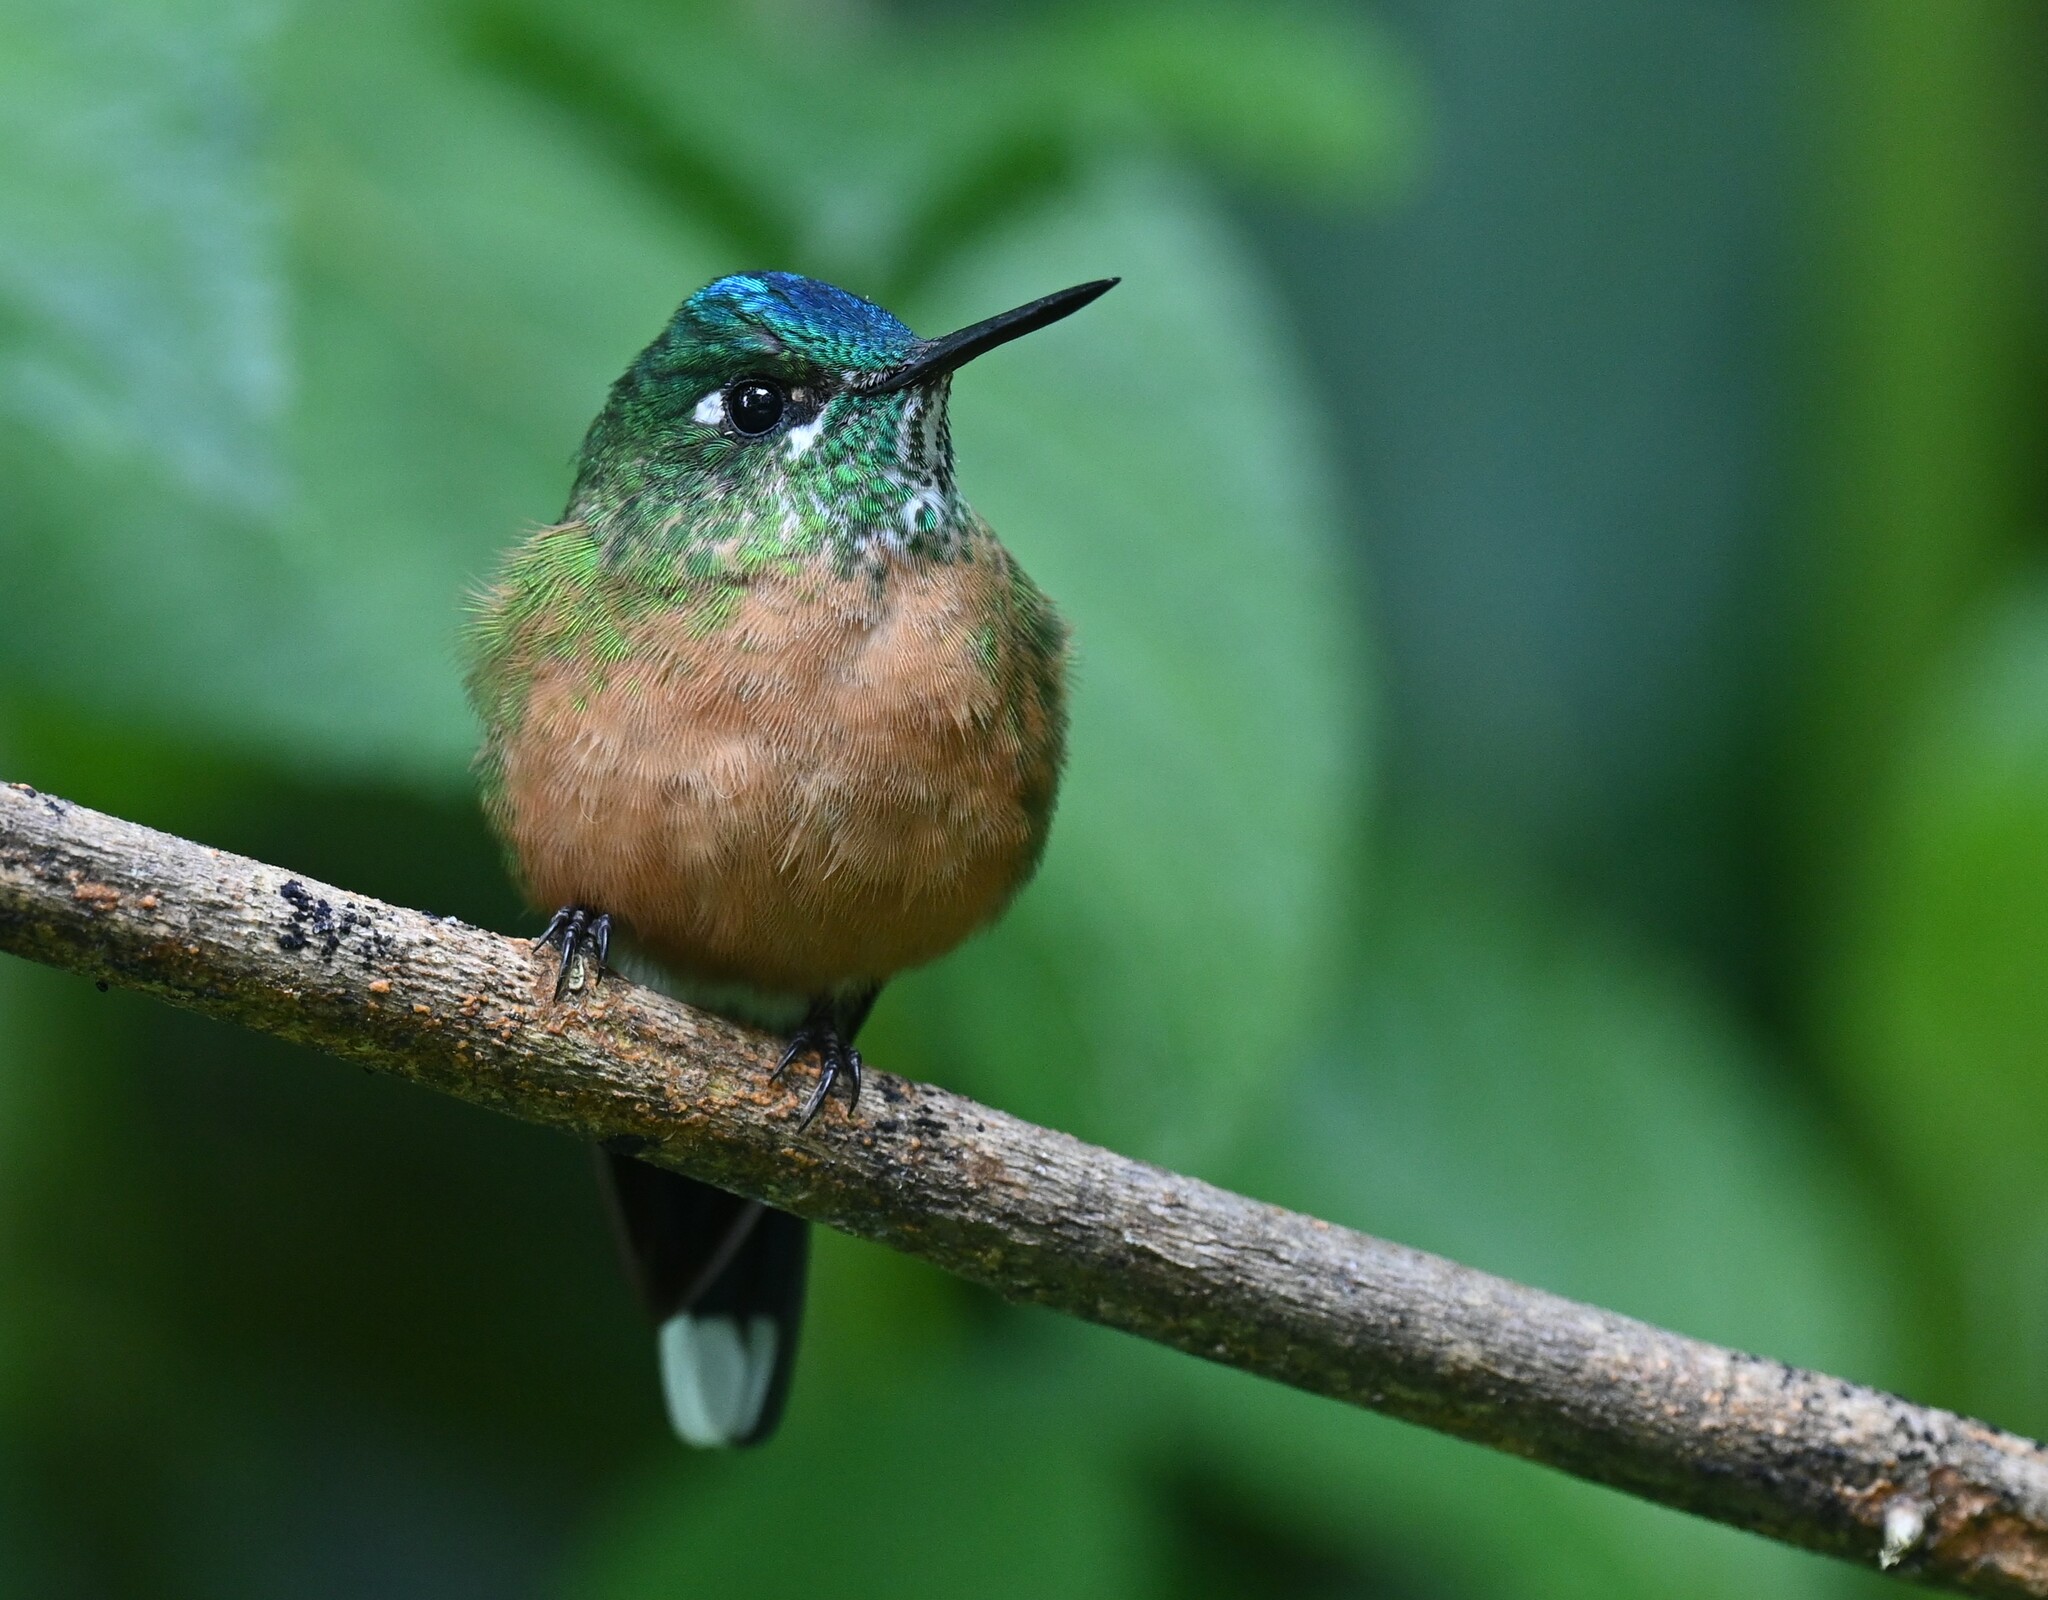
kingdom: Animalia
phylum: Chordata
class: Aves
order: Apodiformes
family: Trochilidae
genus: Aglaiocercus
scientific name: Aglaiocercus kingii
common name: Long-tailed sylph
